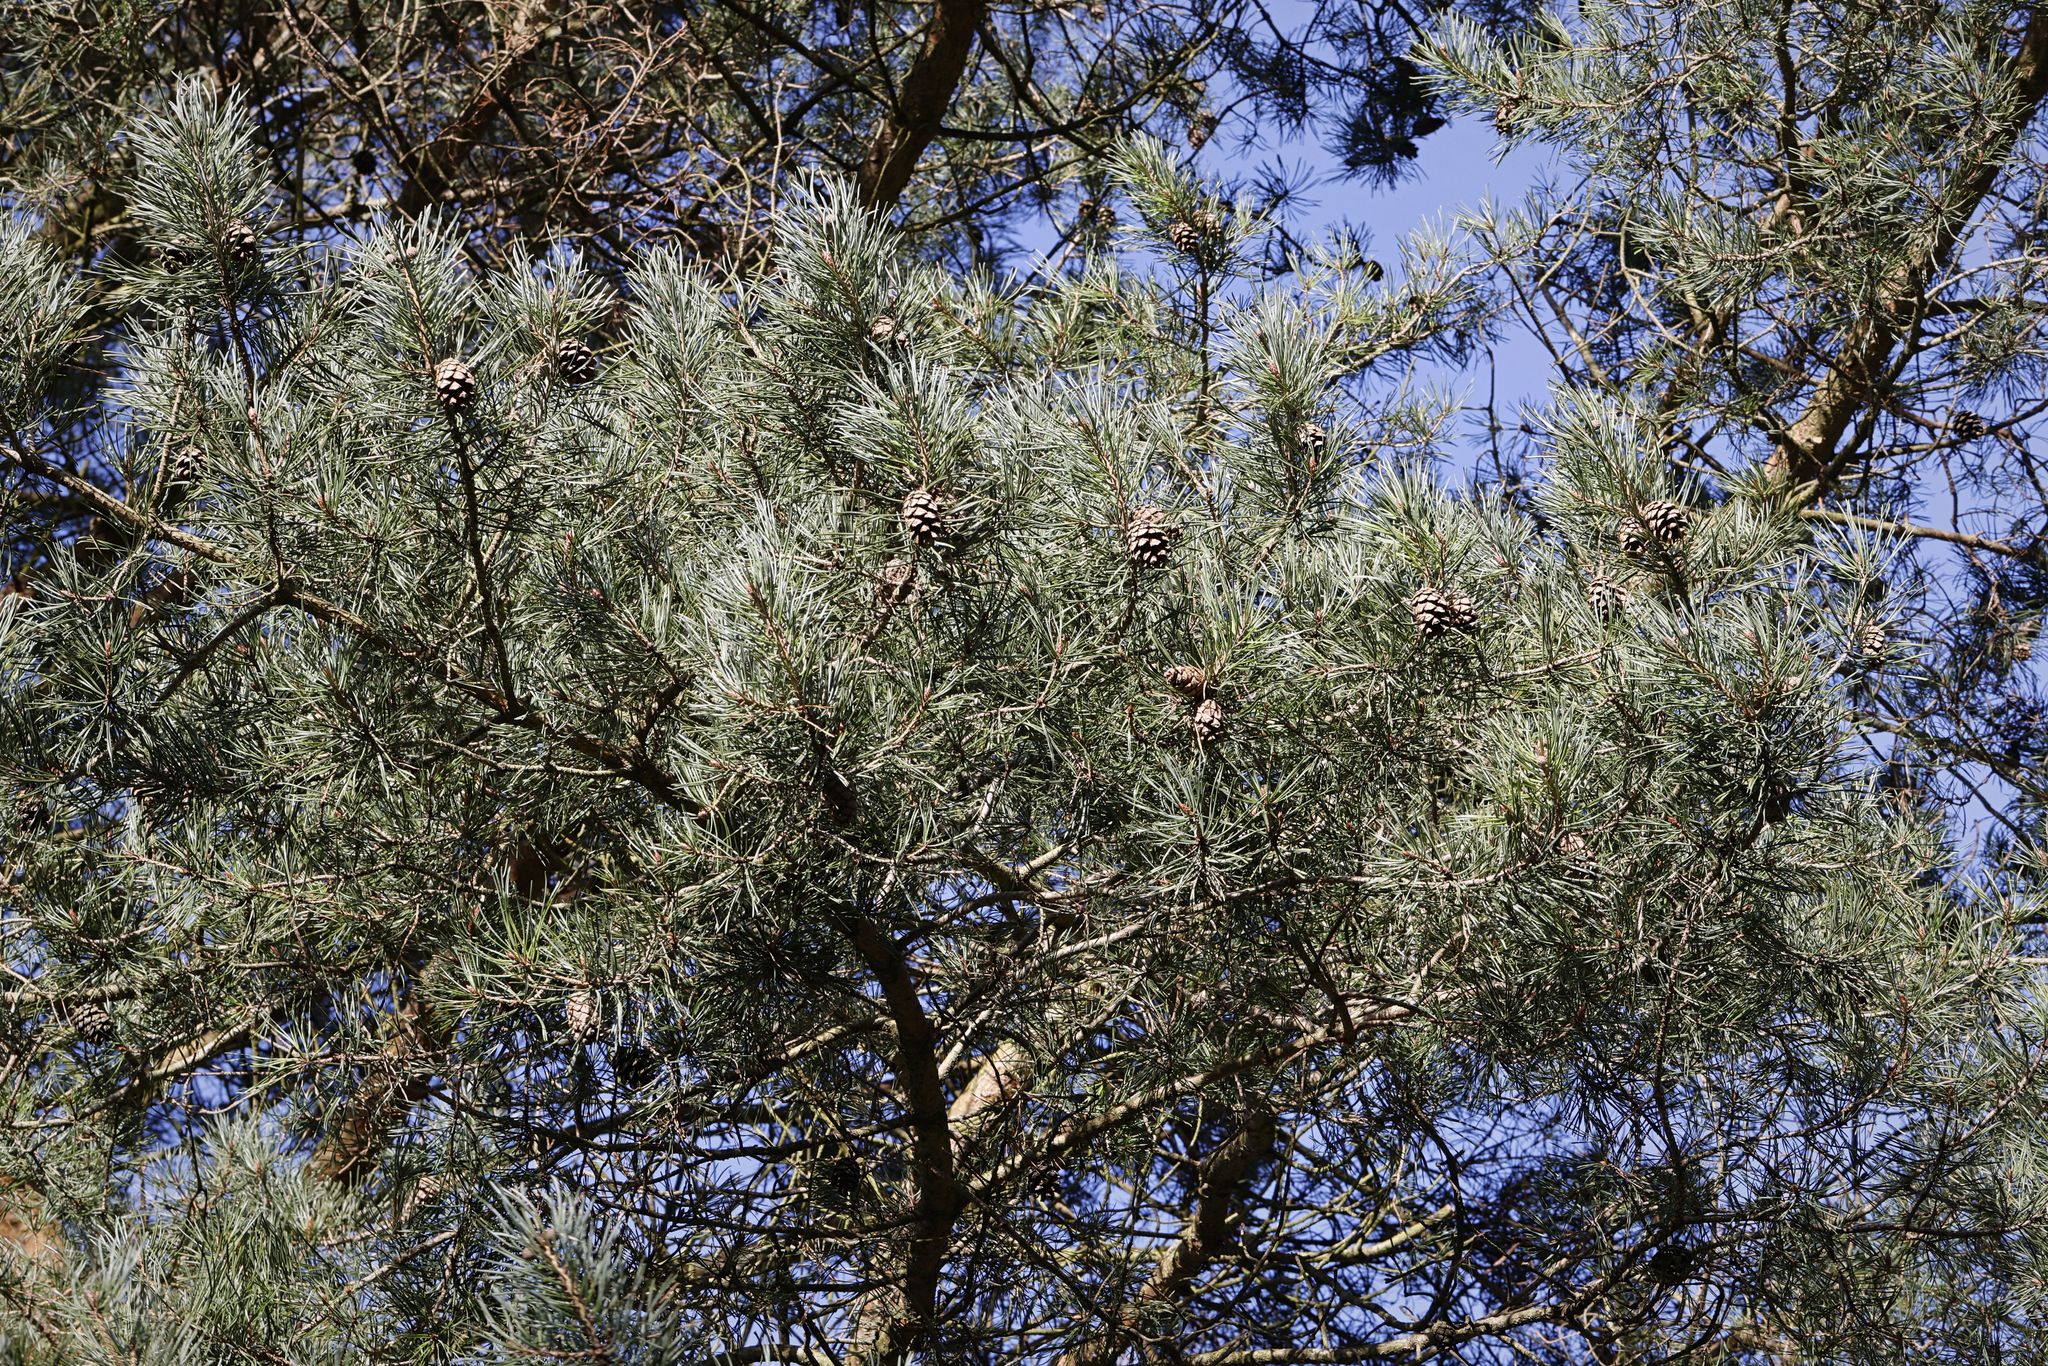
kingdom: Plantae
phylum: Tracheophyta
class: Pinopsida
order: Pinales
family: Pinaceae
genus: Pinus
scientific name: Pinus sylvestris
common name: Scots pine
